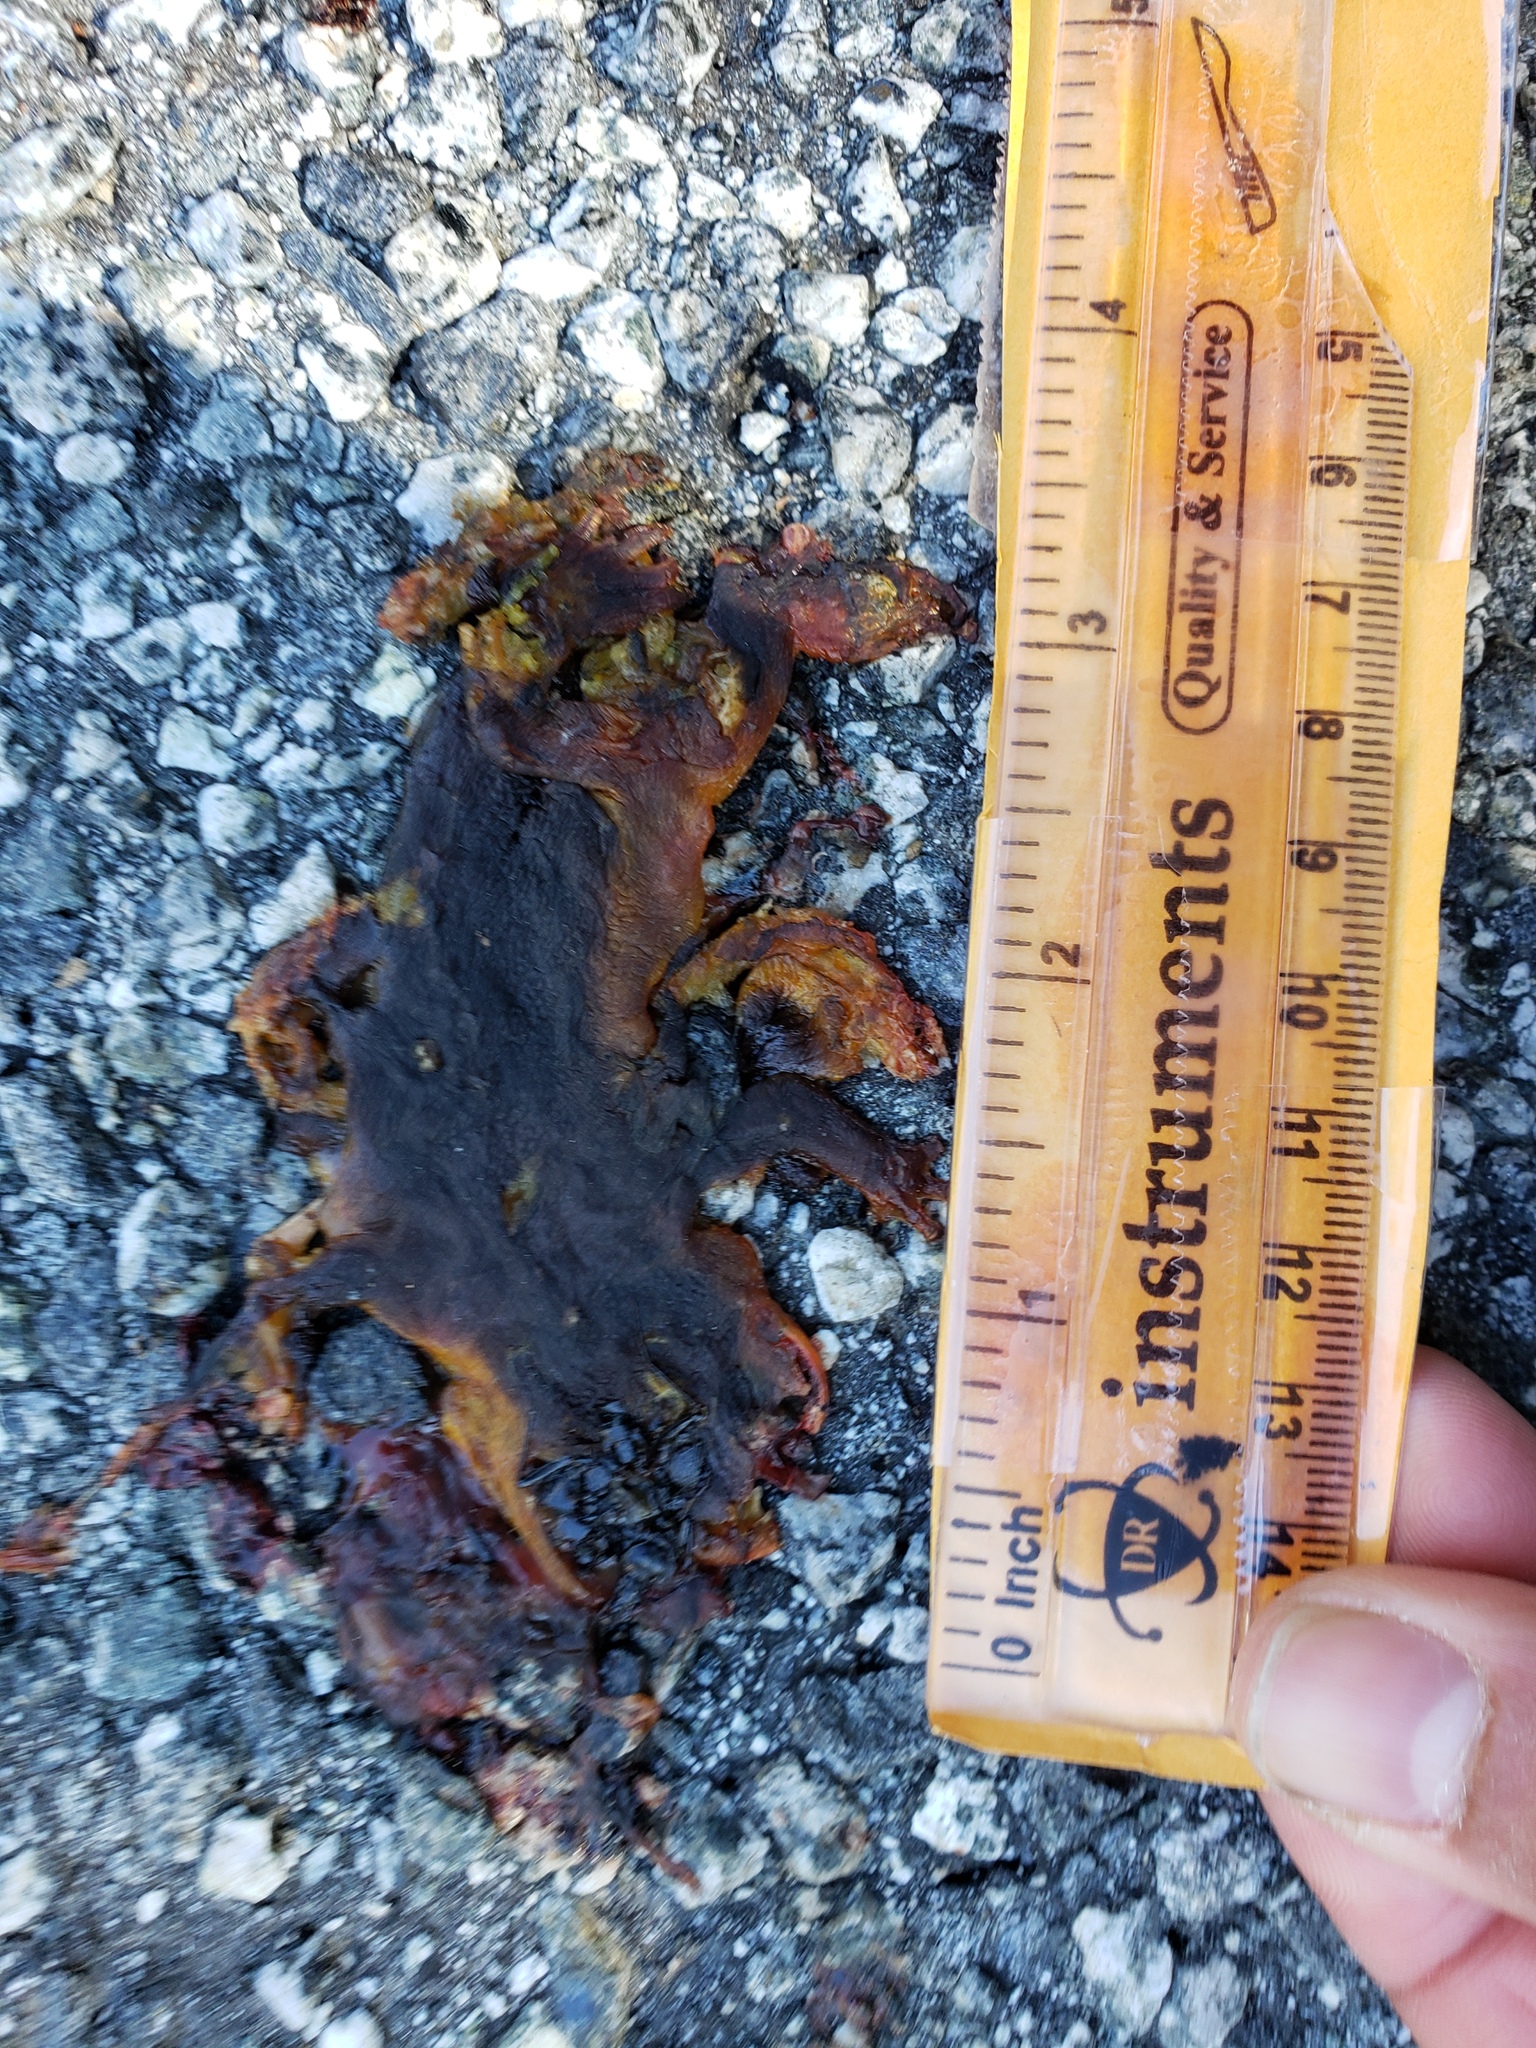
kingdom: Animalia
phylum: Chordata
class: Amphibia
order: Caudata
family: Salamandridae
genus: Taricha
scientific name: Taricha
